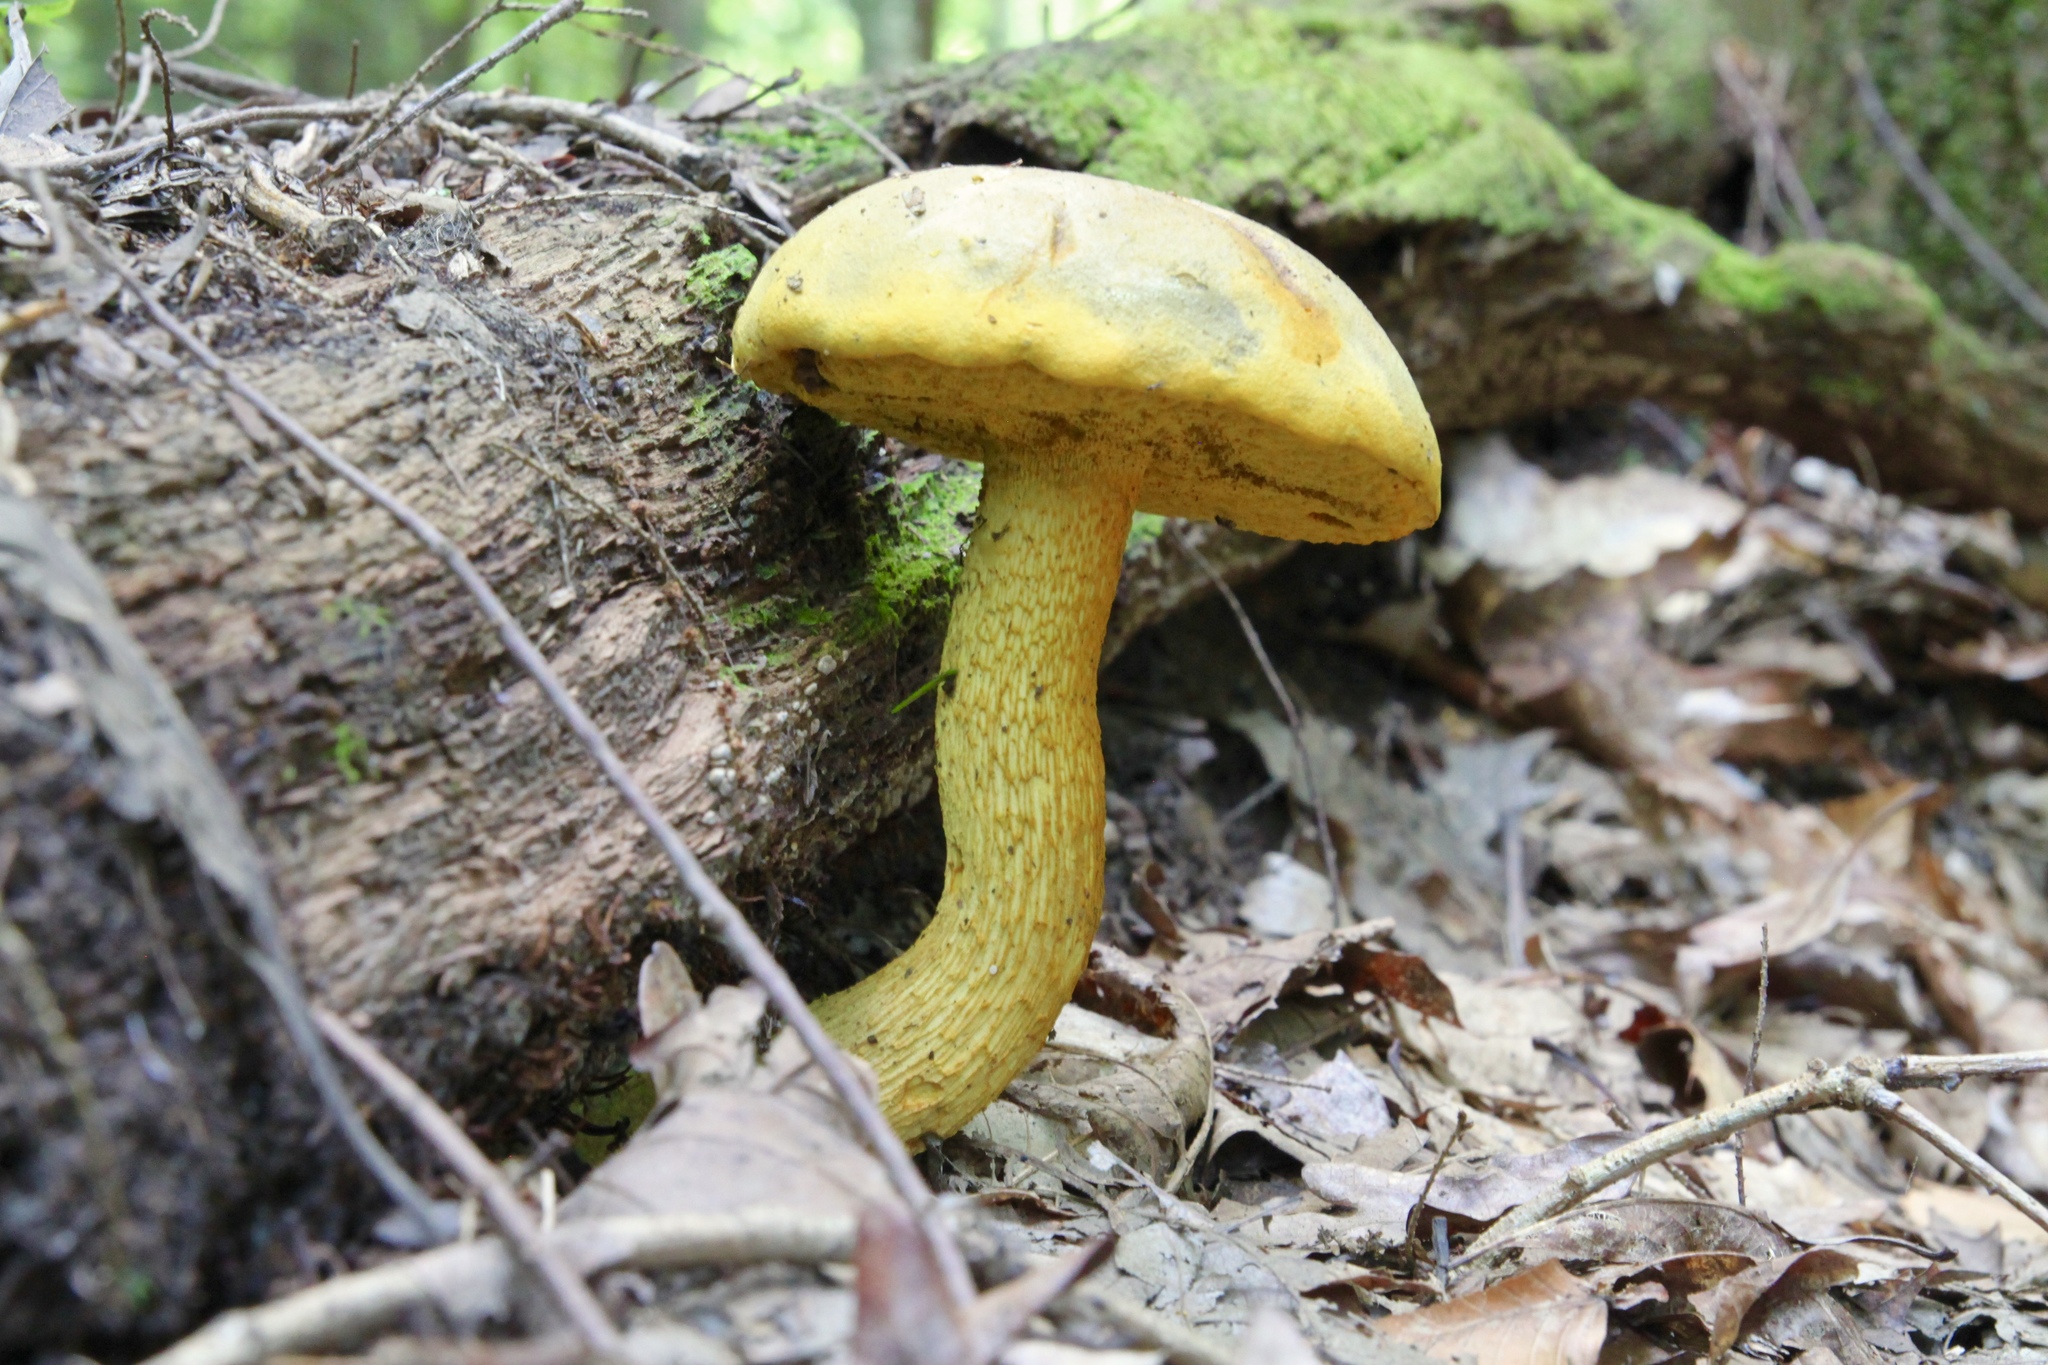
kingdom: Fungi
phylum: Basidiomycota
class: Agaricomycetes
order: Boletales
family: Boletaceae
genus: Retiboletus
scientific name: Retiboletus ornatipes
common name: Ornate-stalked bolete
